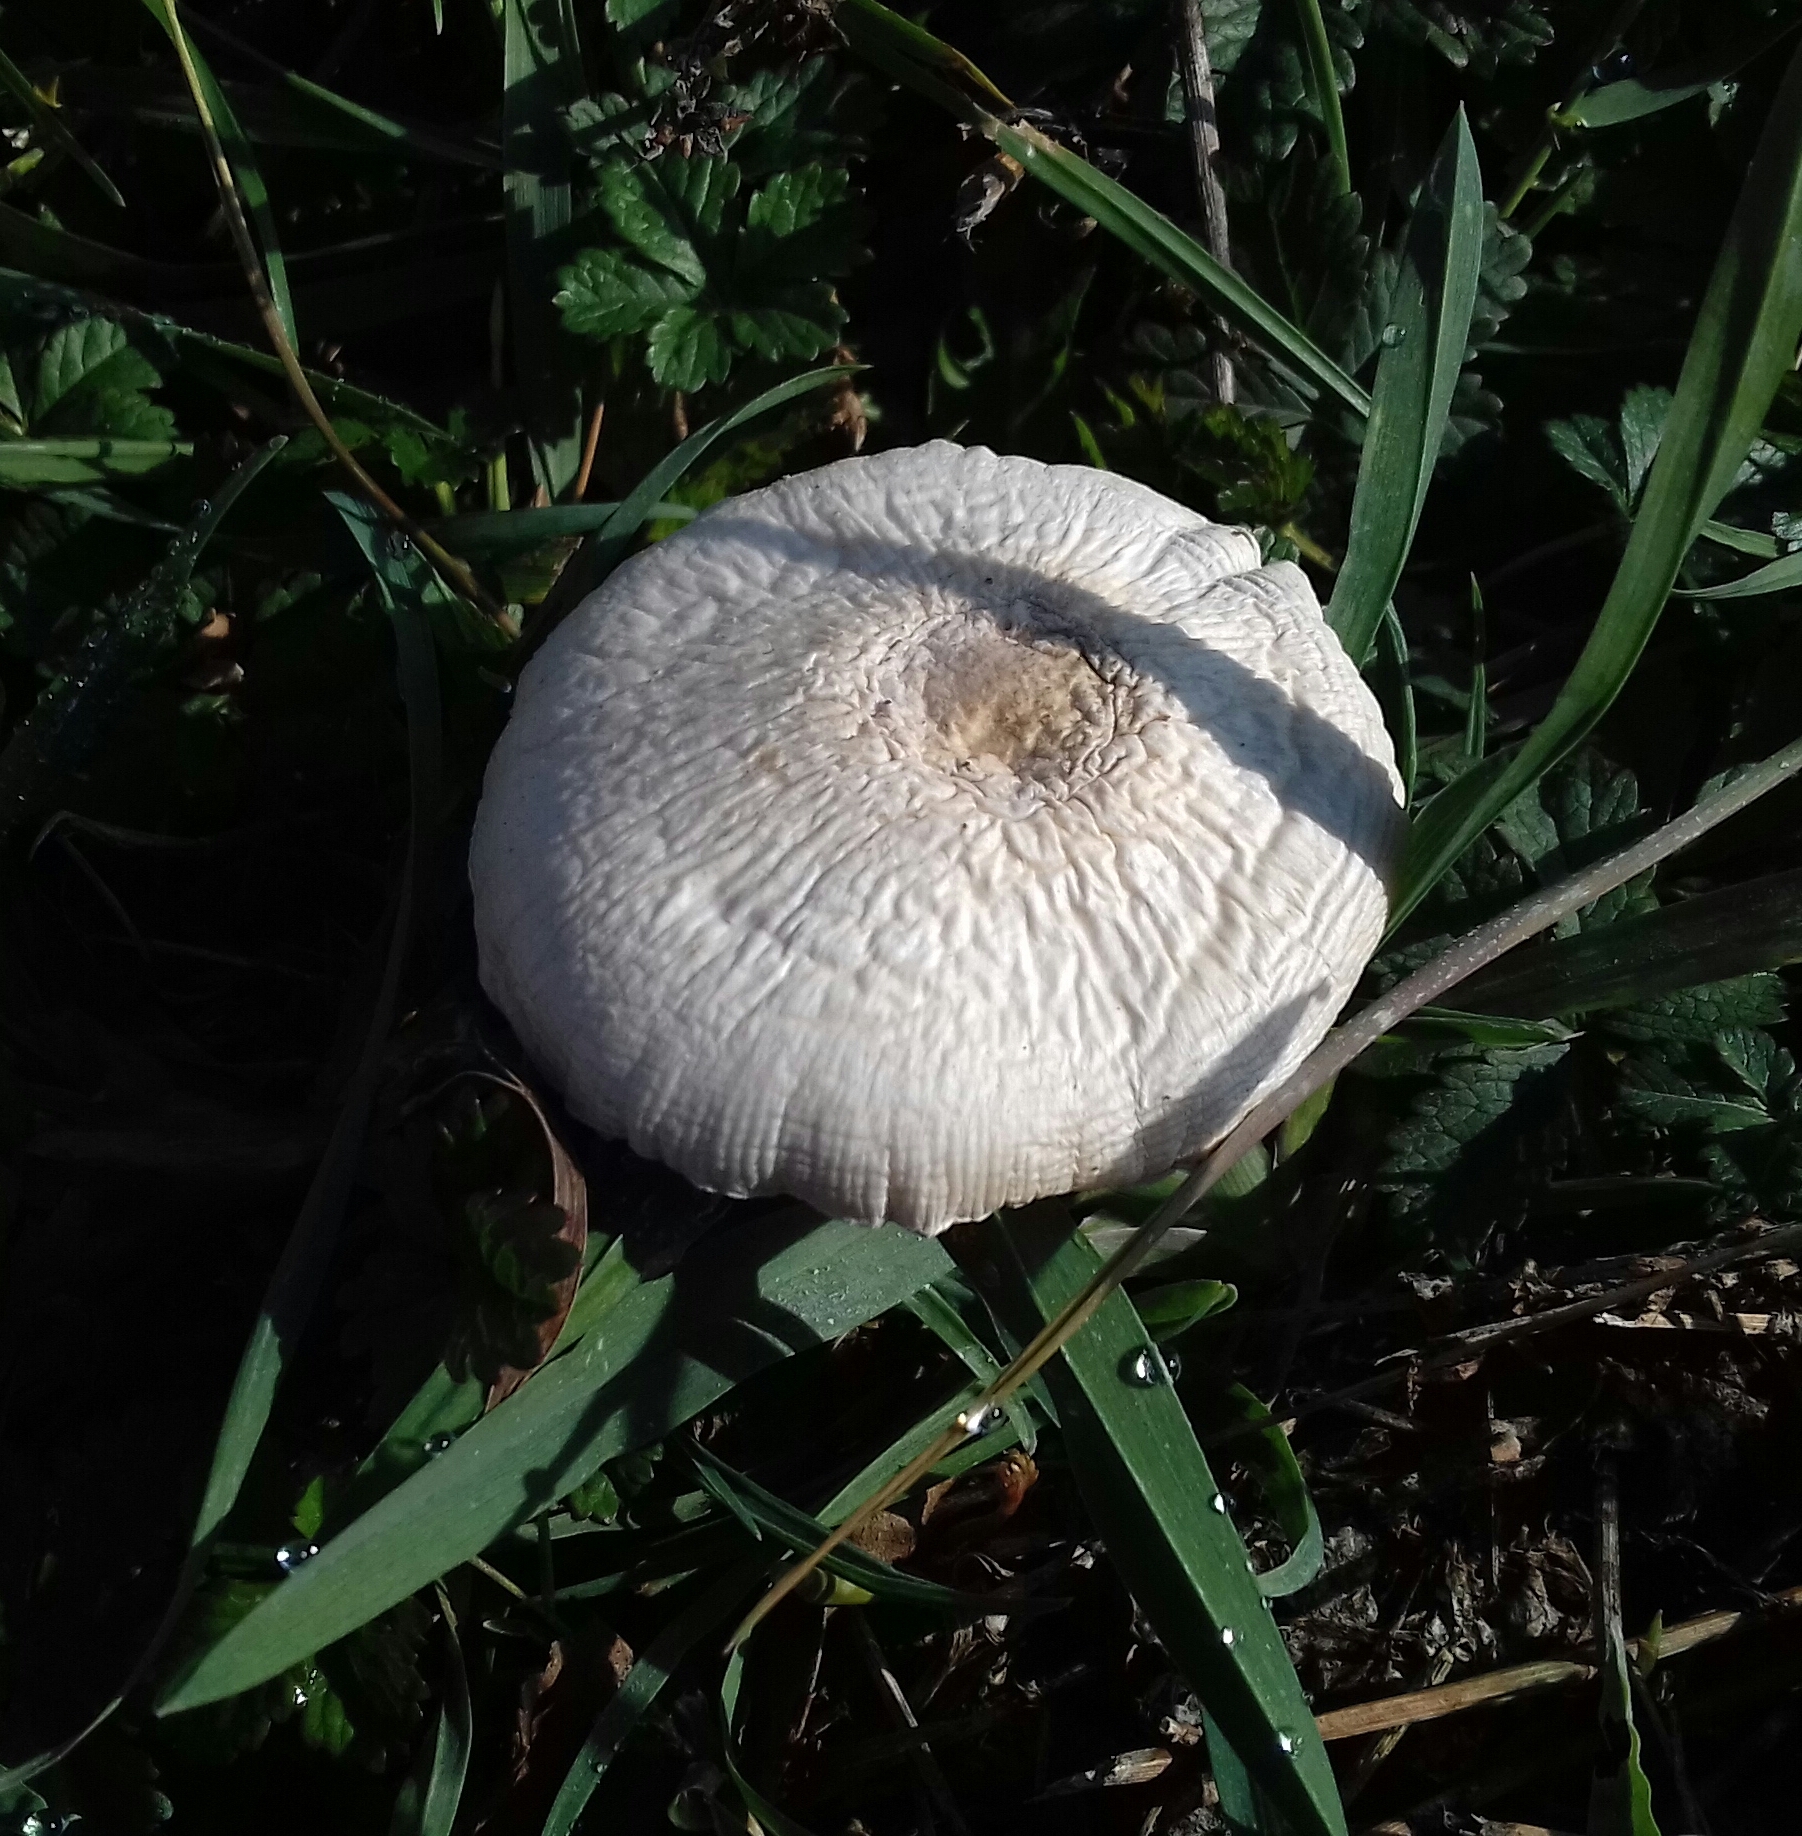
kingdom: Fungi
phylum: Basidiomycota
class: Agaricomycetes
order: Agaricales
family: Agaricaceae
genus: Leucoagaricus
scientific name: Leucoagaricus leucothites
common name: White dapperling
